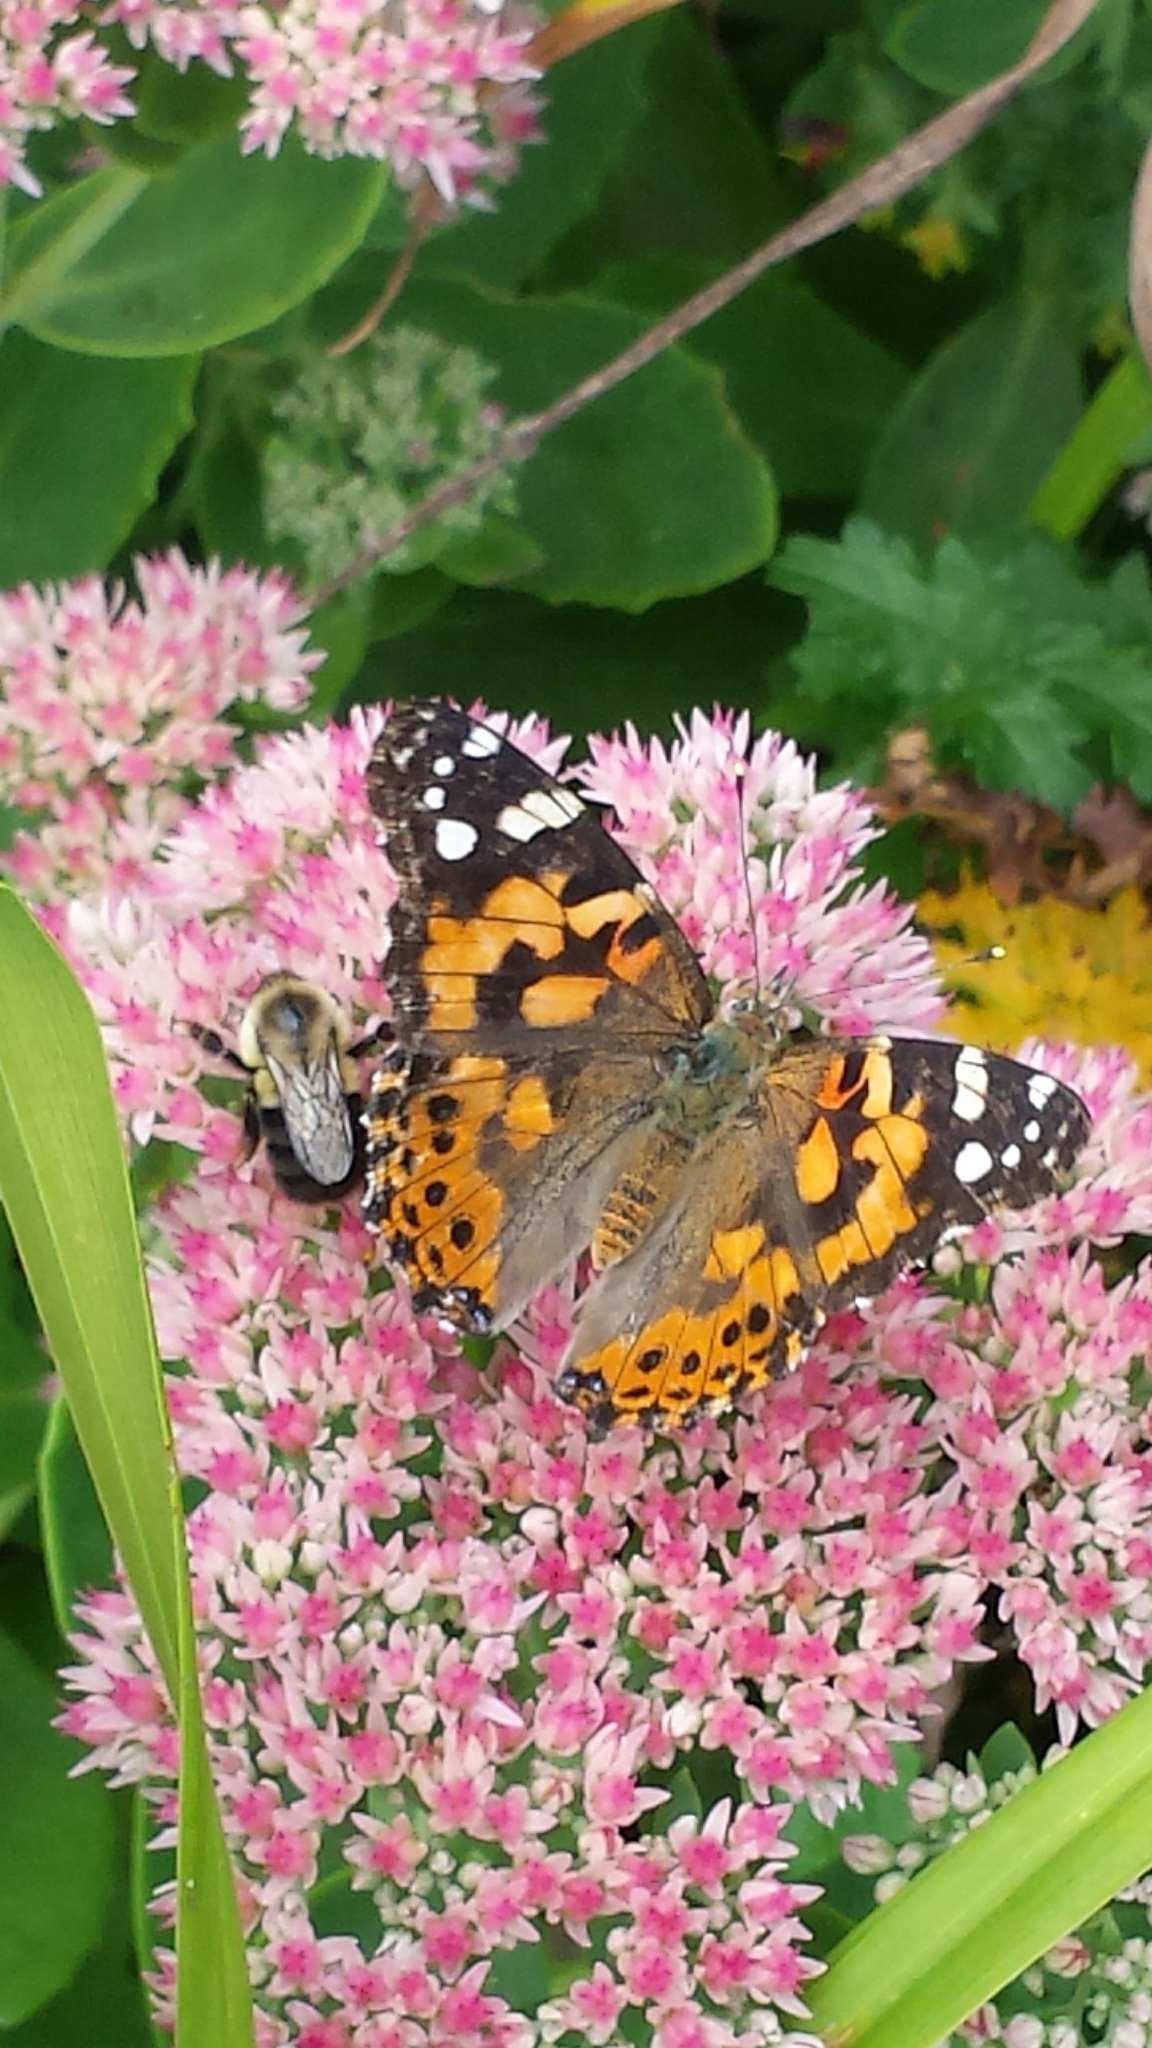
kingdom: Animalia
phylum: Arthropoda
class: Insecta
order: Lepidoptera
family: Nymphalidae
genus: Vanessa
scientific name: Vanessa cardui
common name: Painted lady
